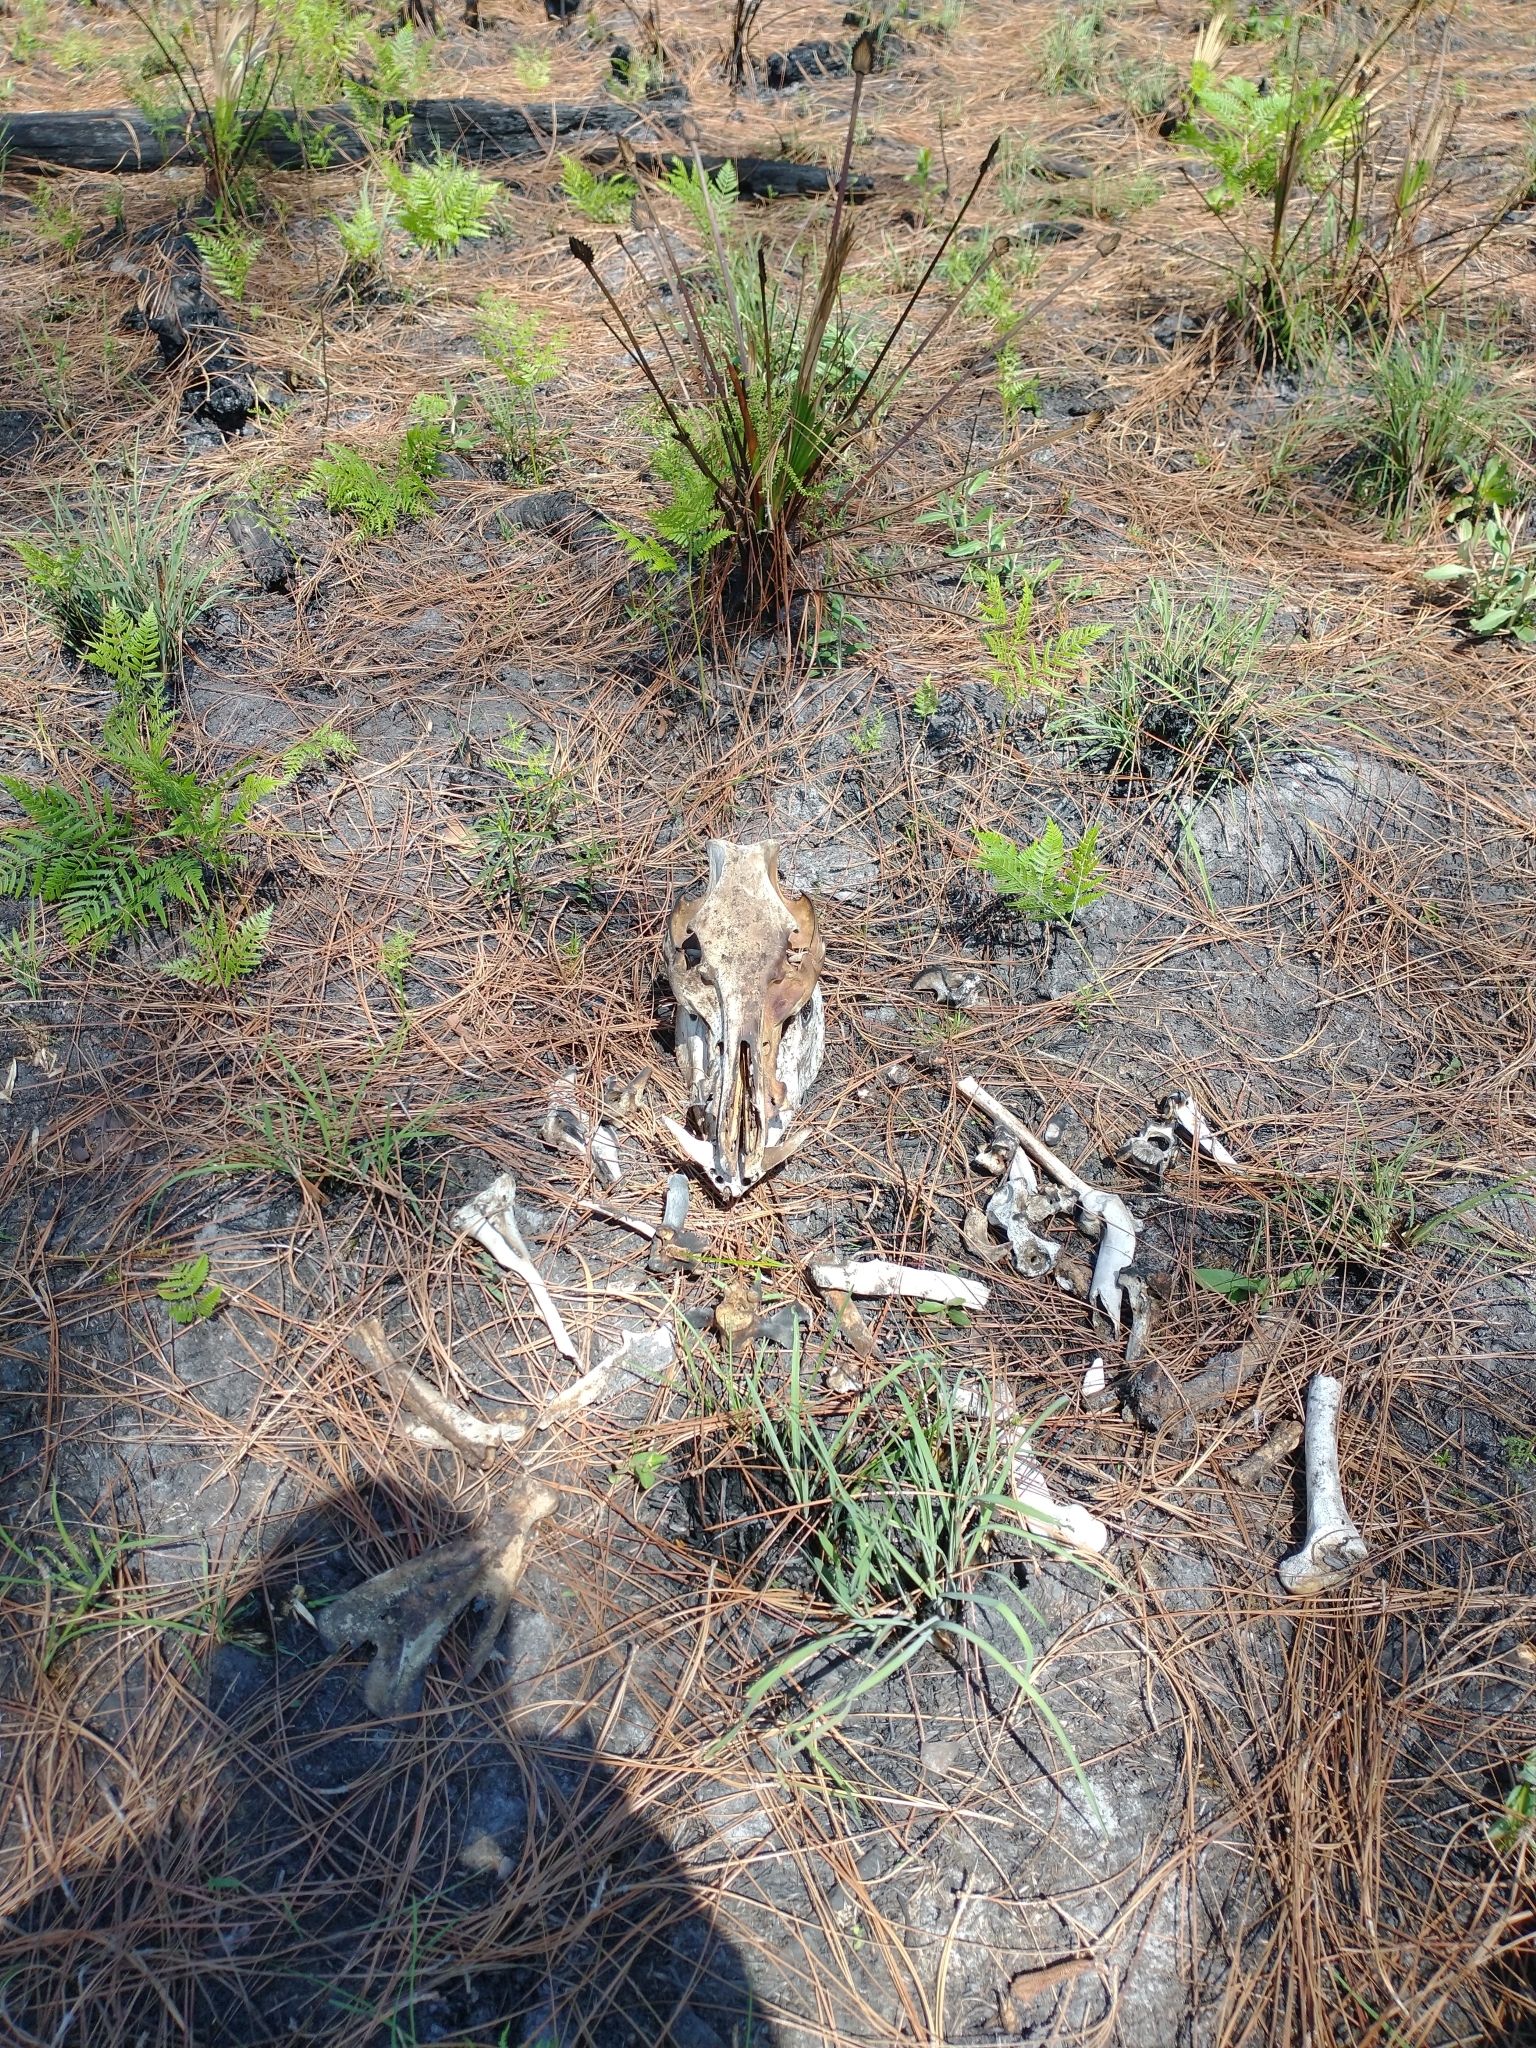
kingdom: Animalia
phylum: Chordata
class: Mammalia
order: Artiodactyla
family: Suidae
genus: Sus
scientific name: Sus scrofa
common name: Wild boar
